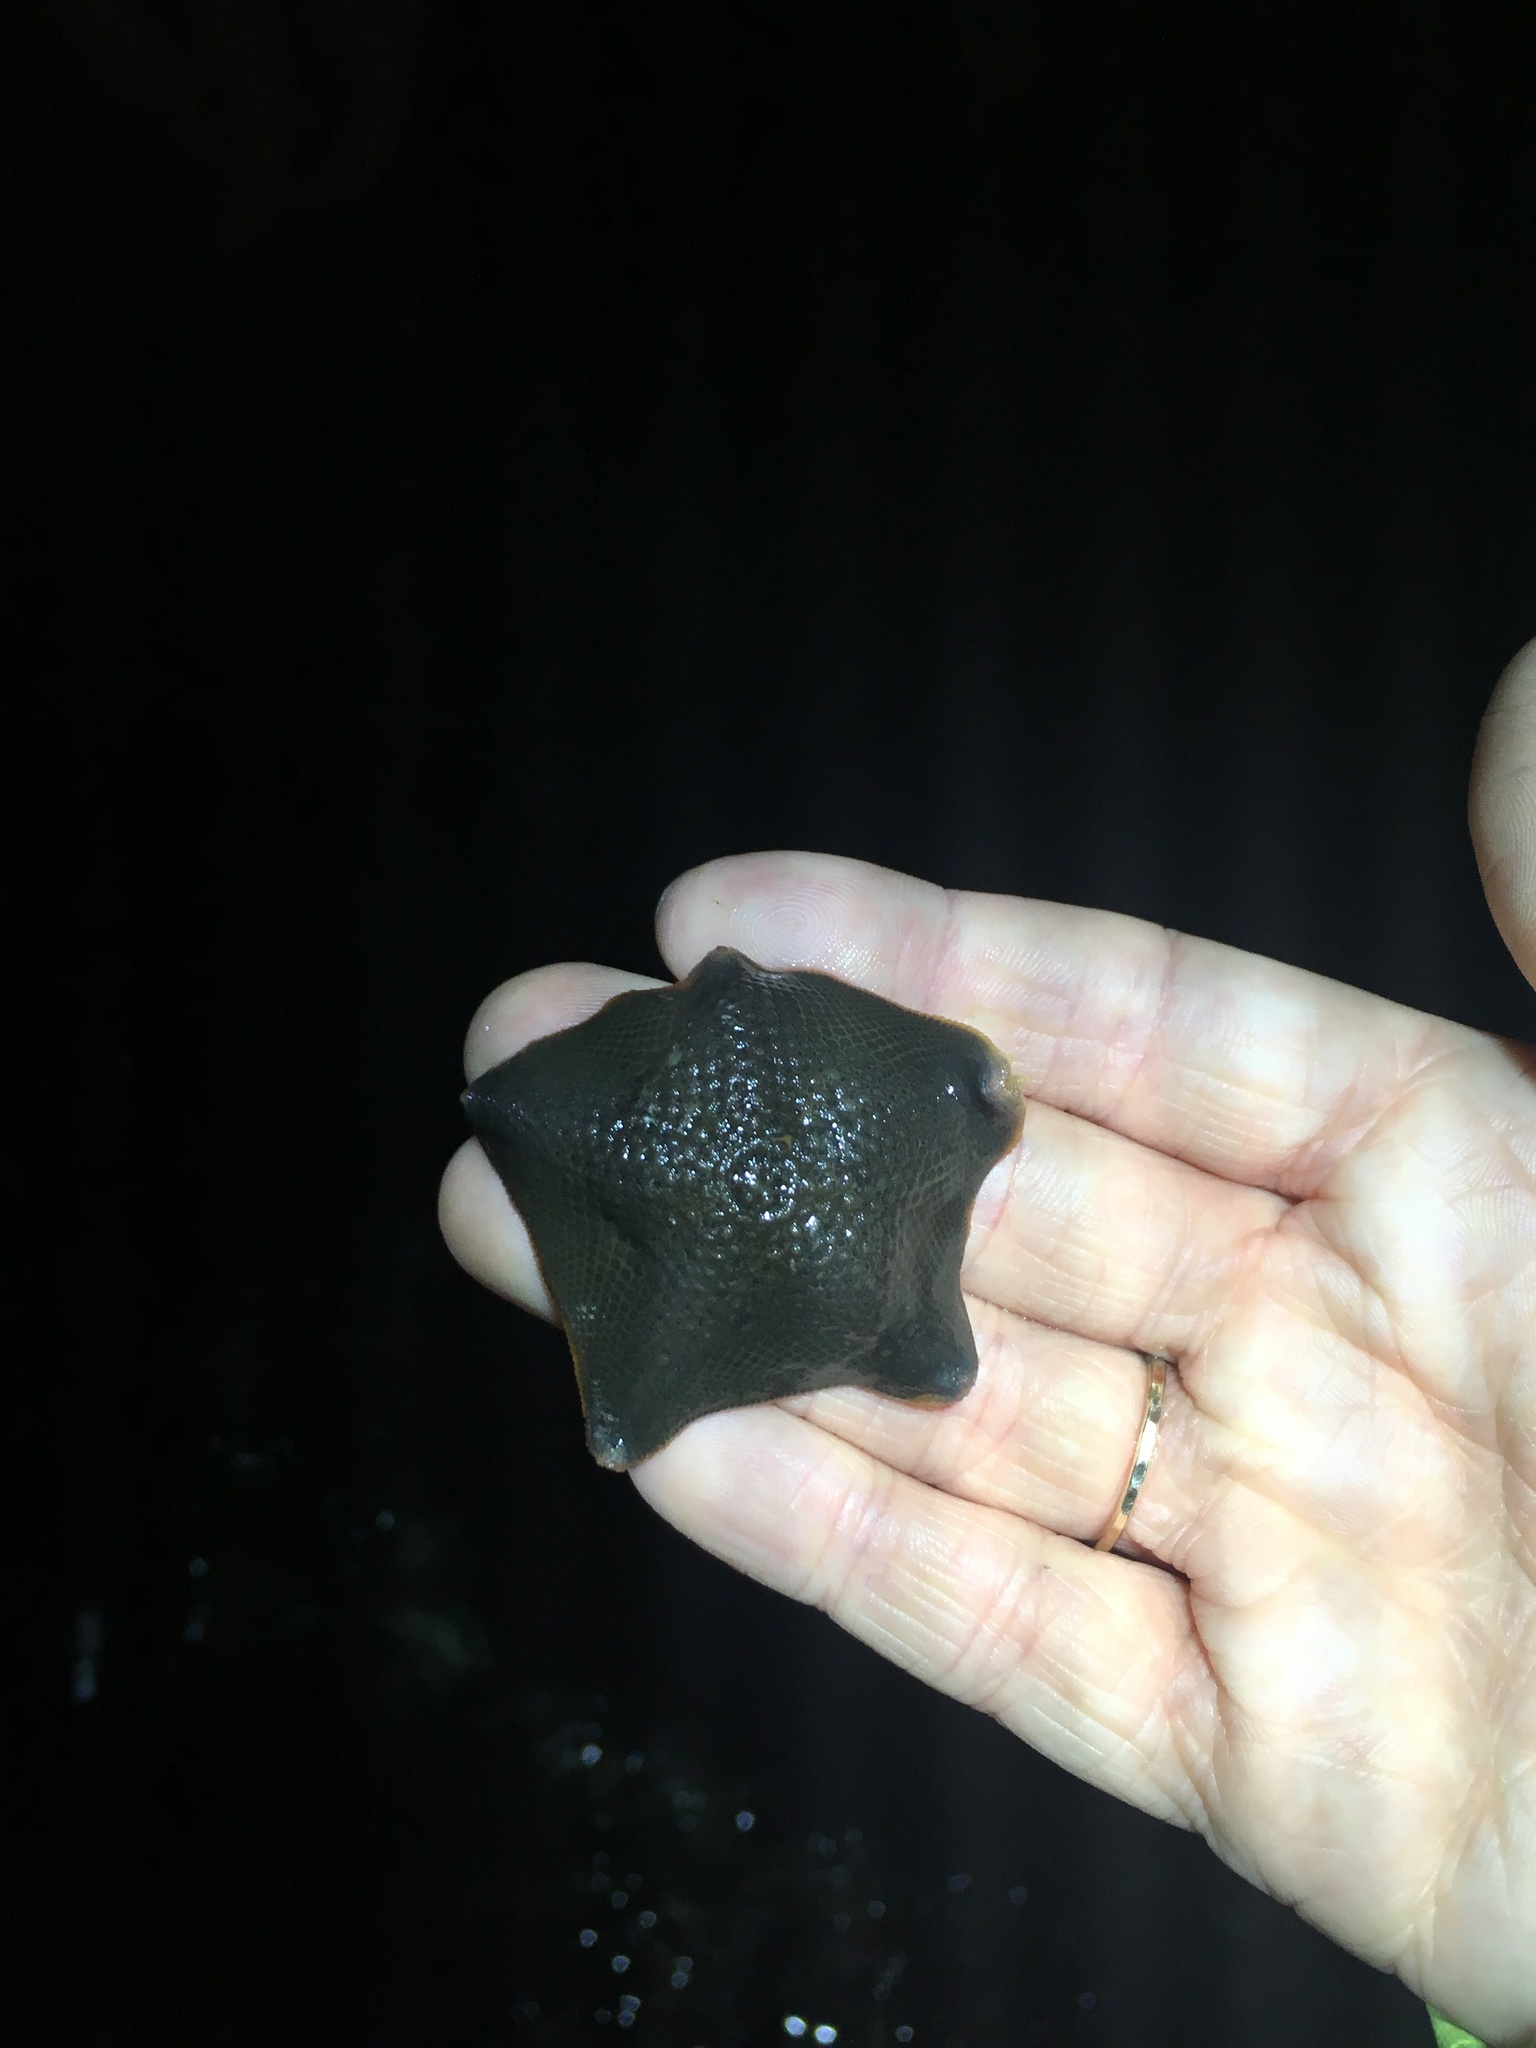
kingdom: Animalia
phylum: Echinodermata
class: Asteroidea
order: Valvatida
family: Asterinidae
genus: Patiria
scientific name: Patiria miniata
